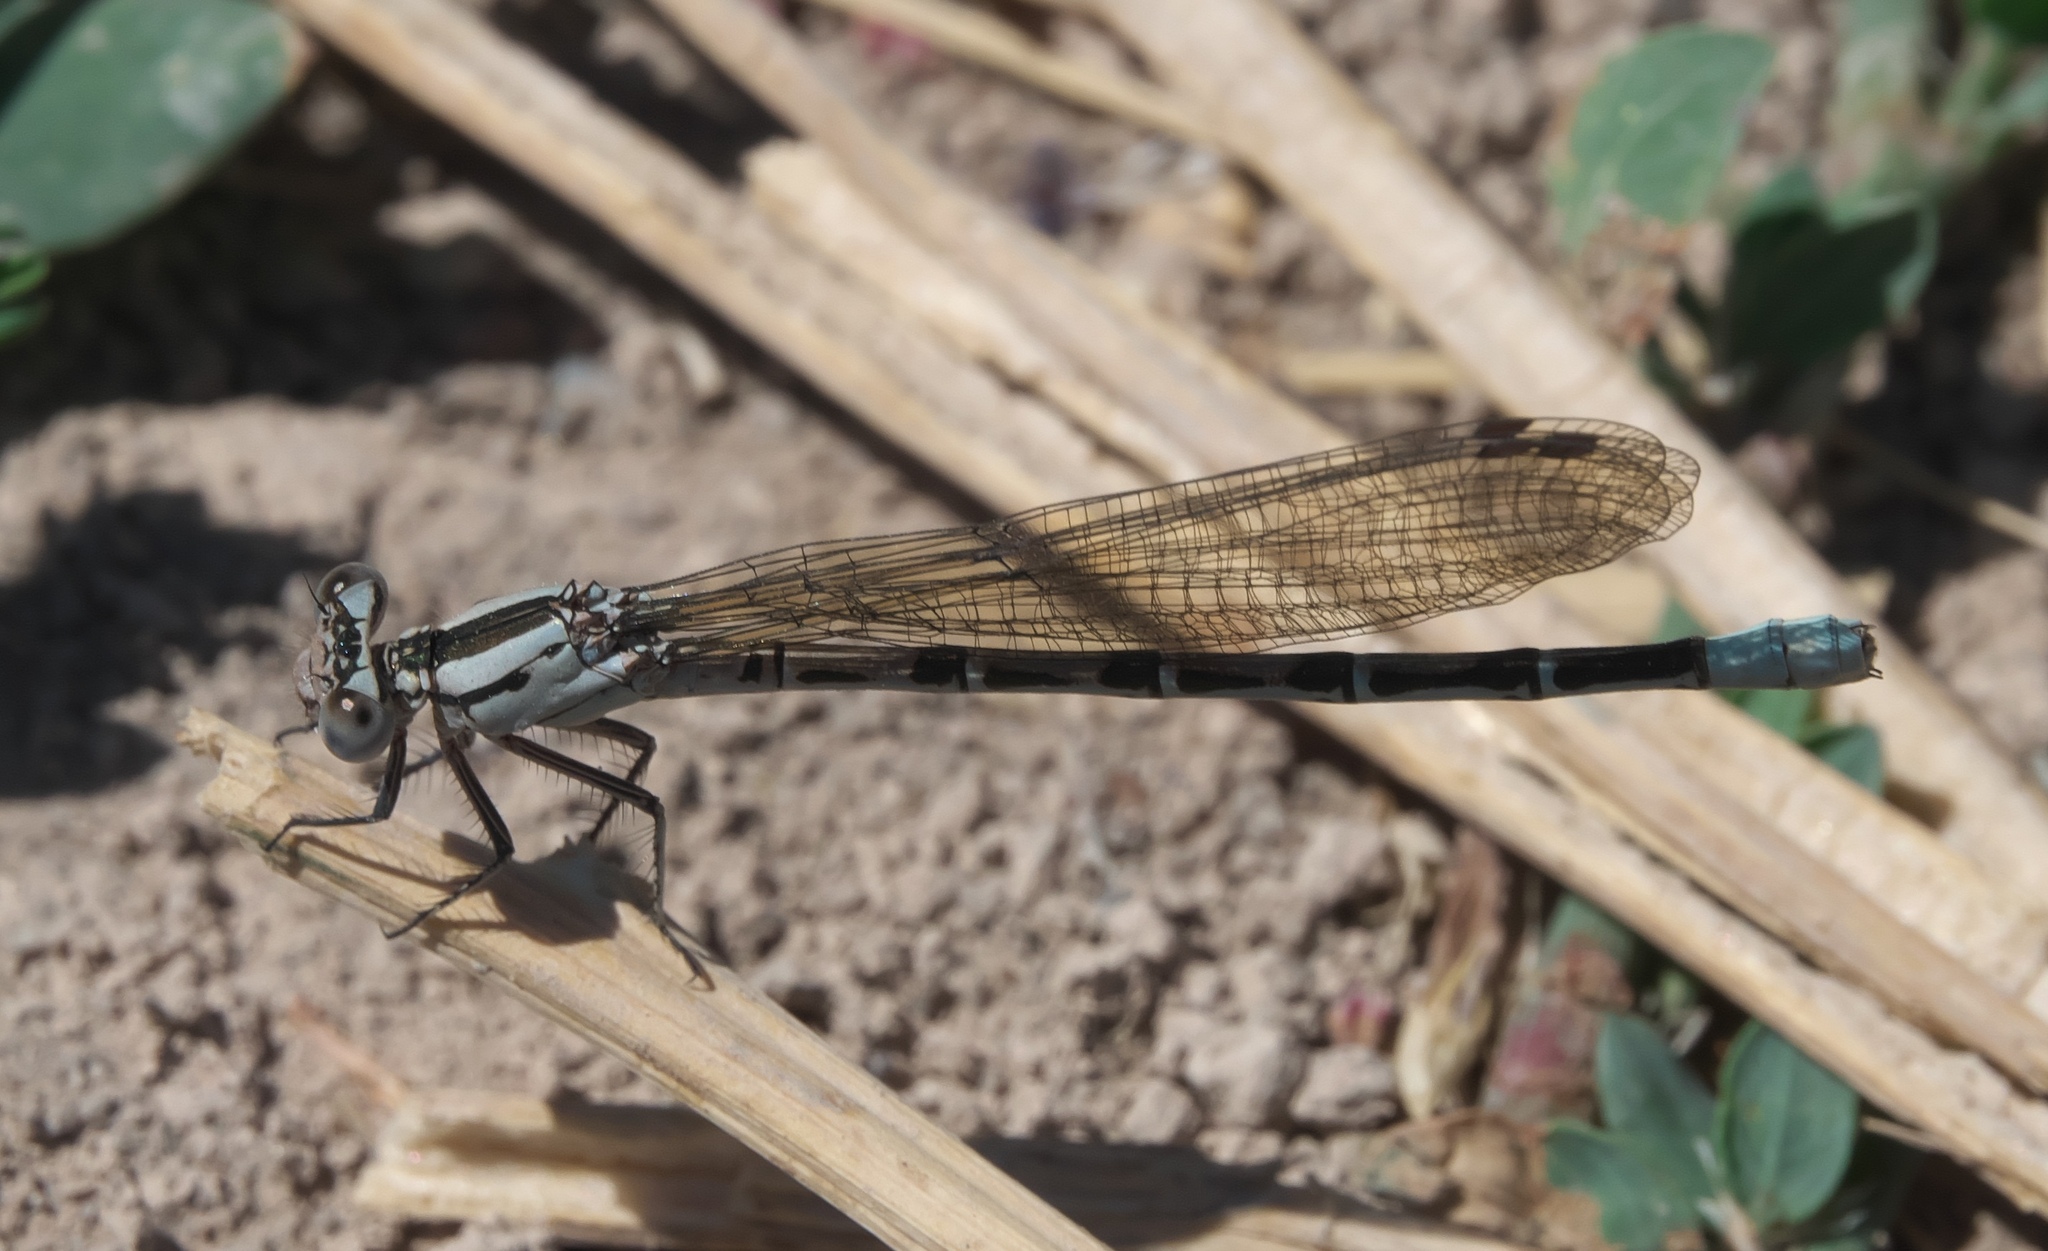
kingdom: Animalia
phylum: Arthropoda
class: Insecta
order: Odonata
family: Coenagrionidae
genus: Argia
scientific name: Argia vivida
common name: Vivid dancer
